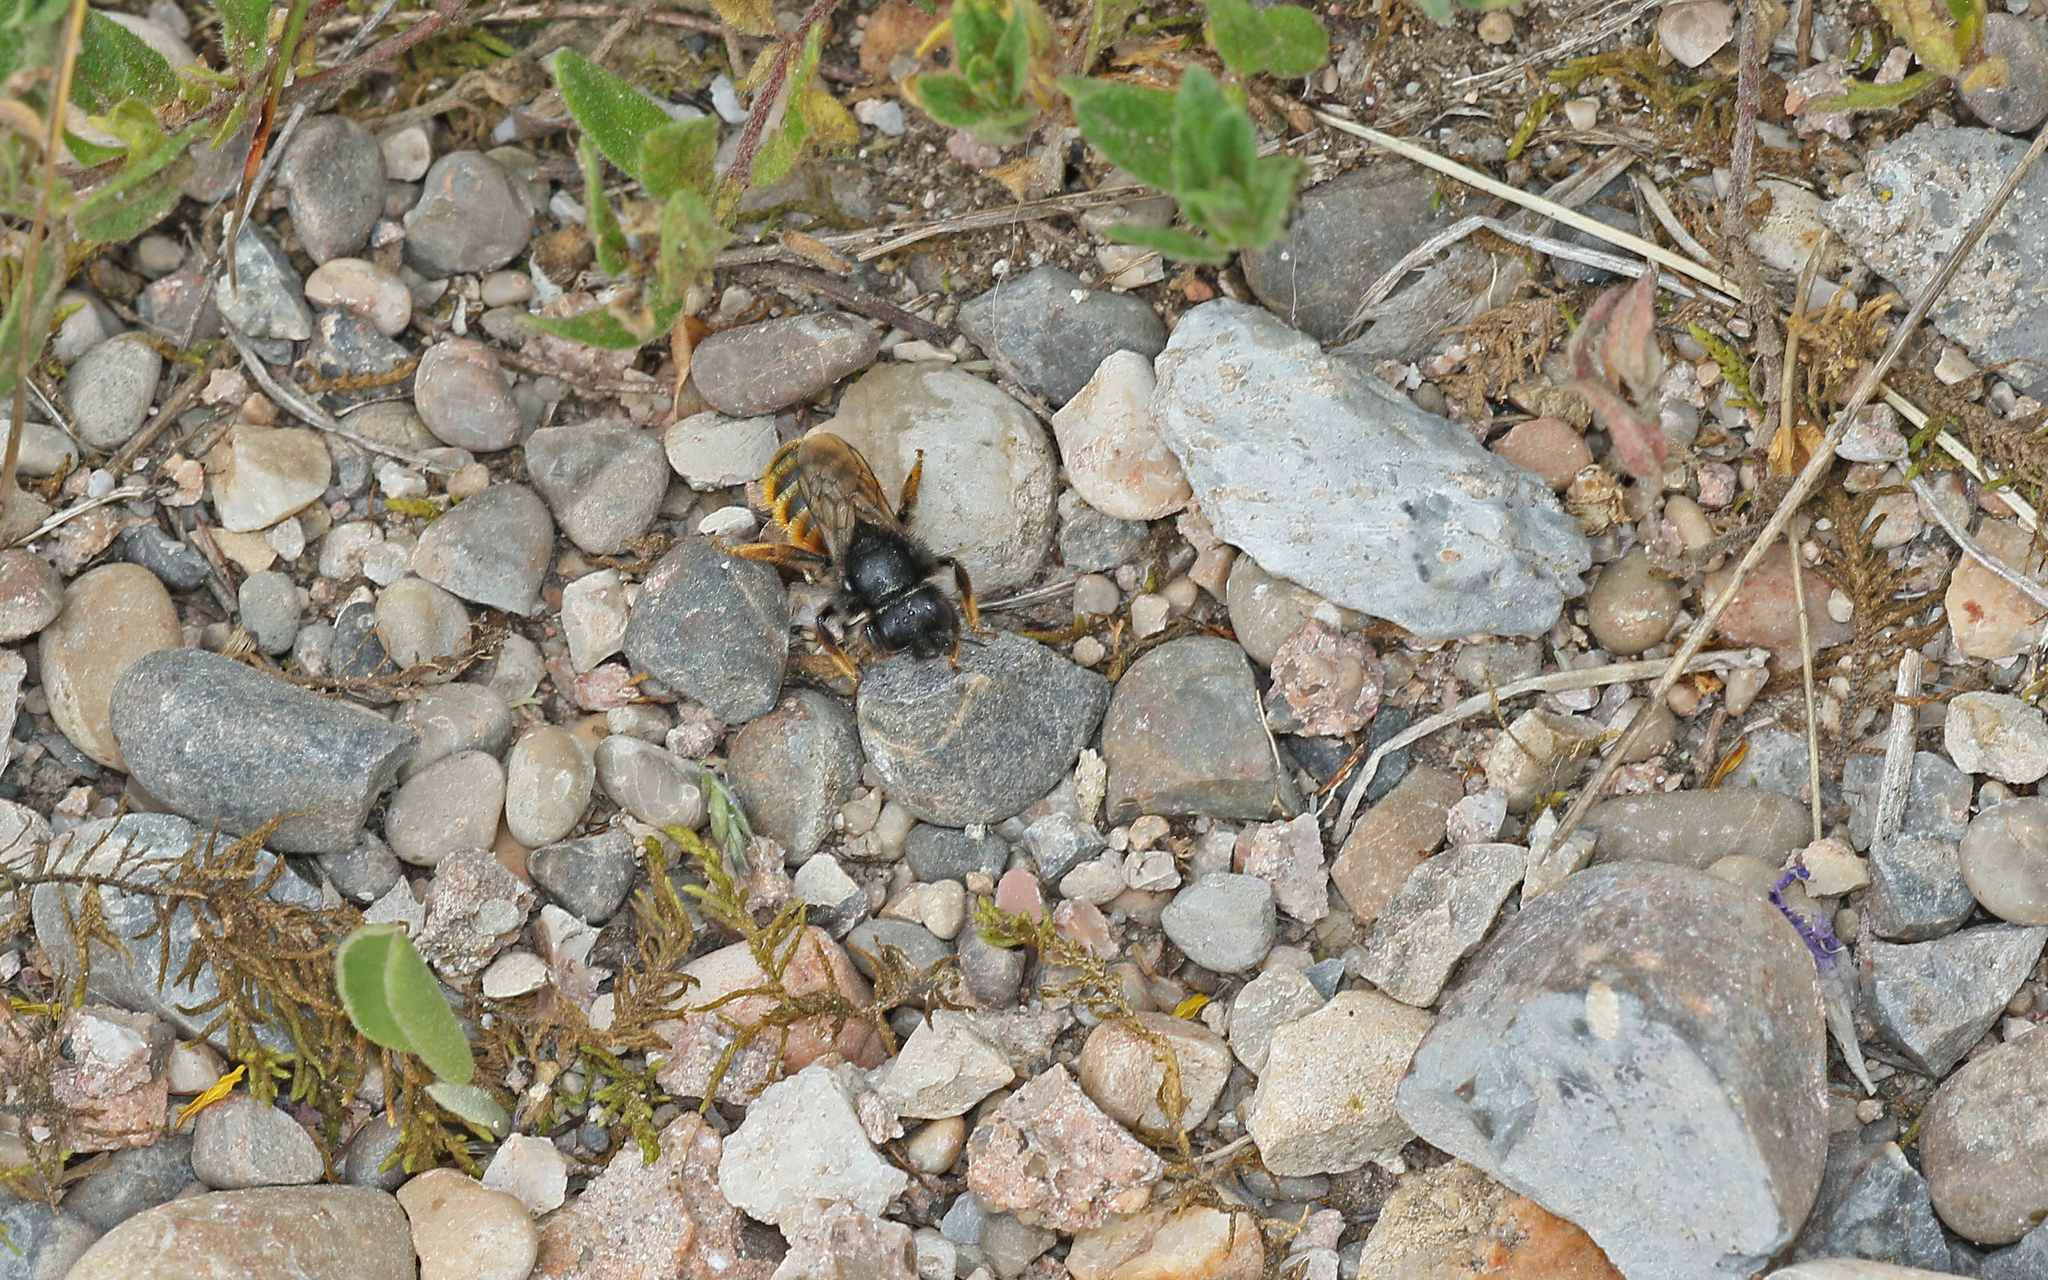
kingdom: Animalia
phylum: Arthropoda
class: Insecta
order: Hymenoptera
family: Megachilidae
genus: Osmia
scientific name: Osmia bicolor
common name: Red-tailed mason bee
